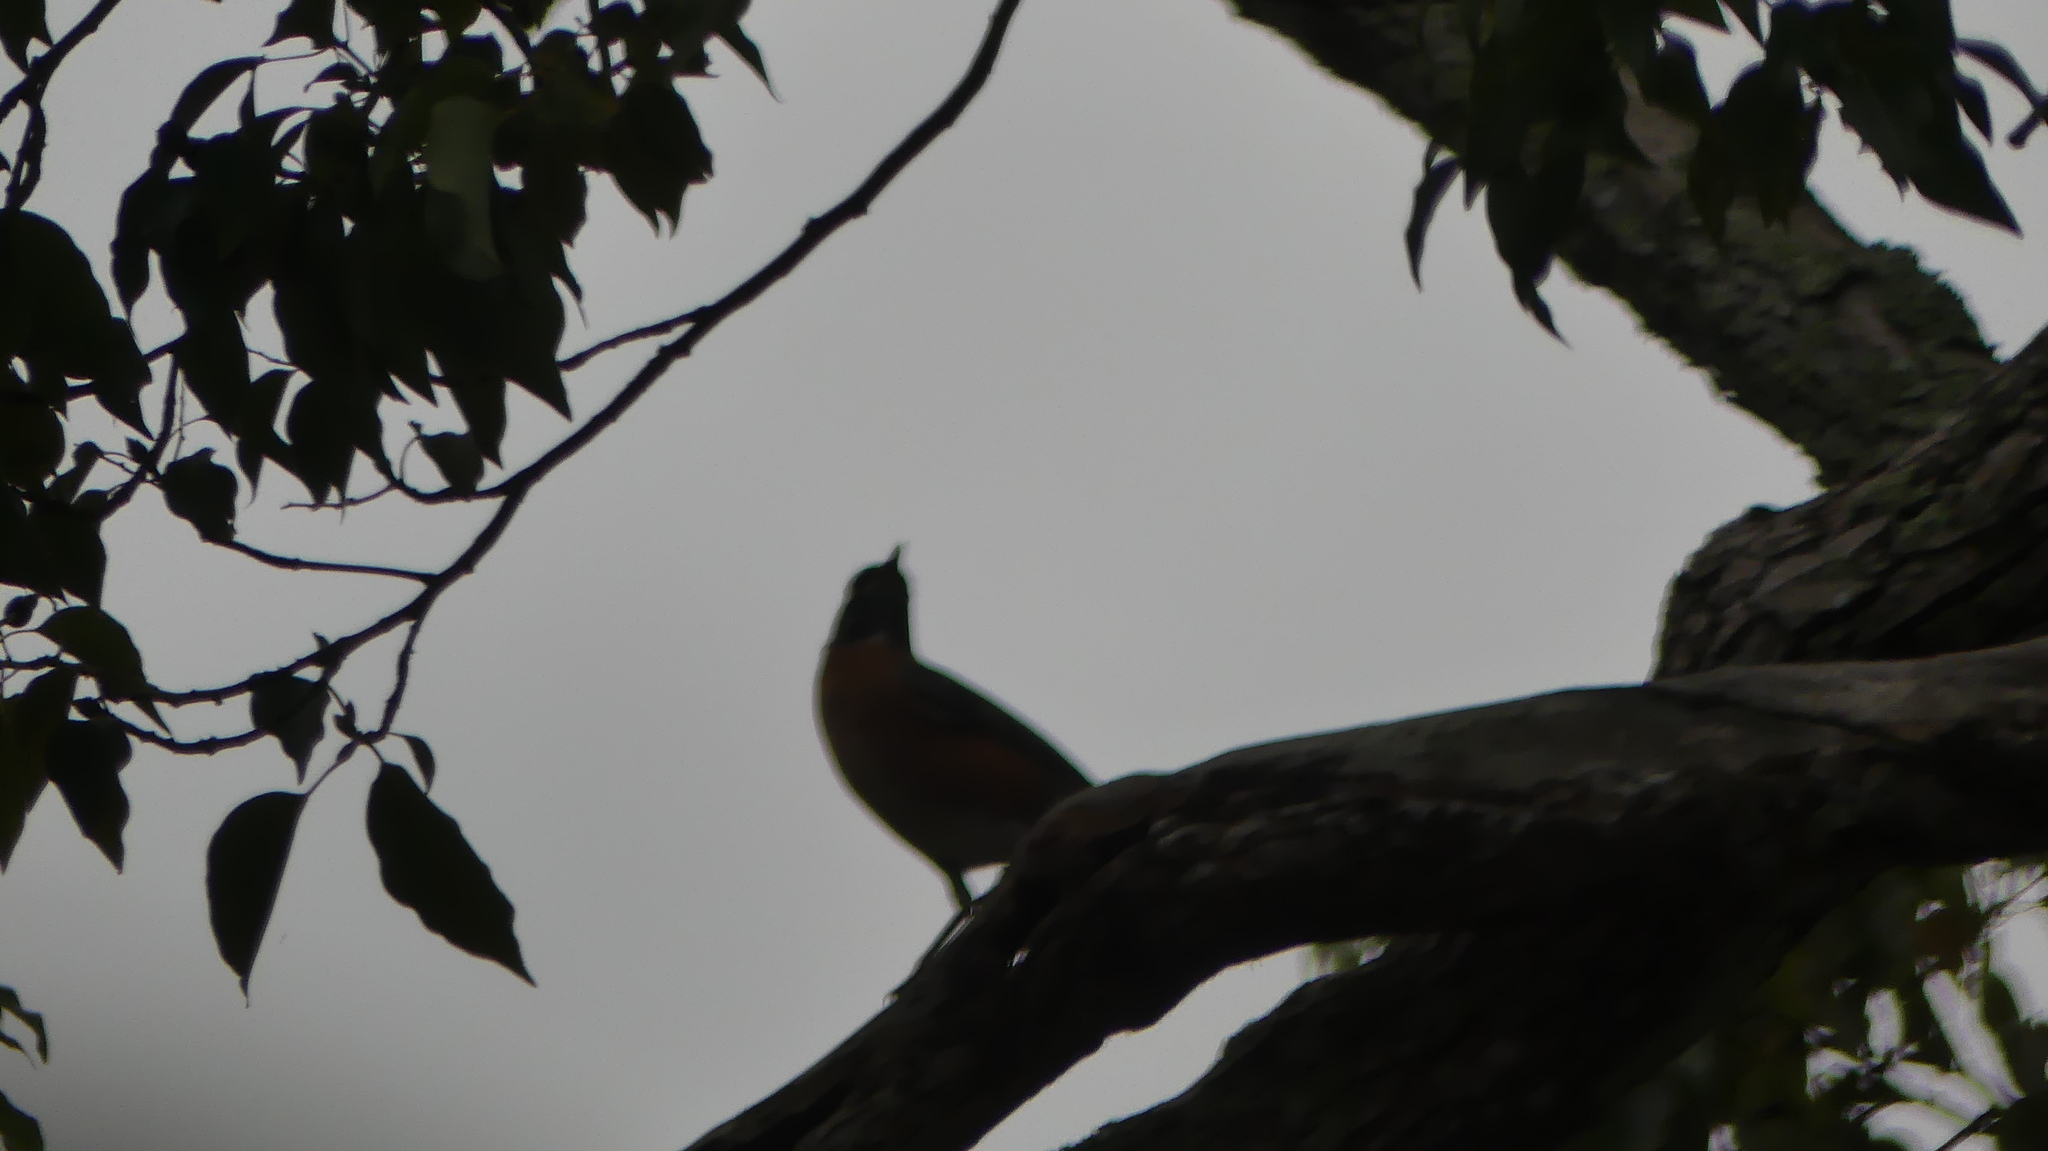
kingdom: Animalia
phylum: Chordata
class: Aves
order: Passeriformes
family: Turdidae
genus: Turdus
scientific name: Turdus migratorius
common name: American robin
